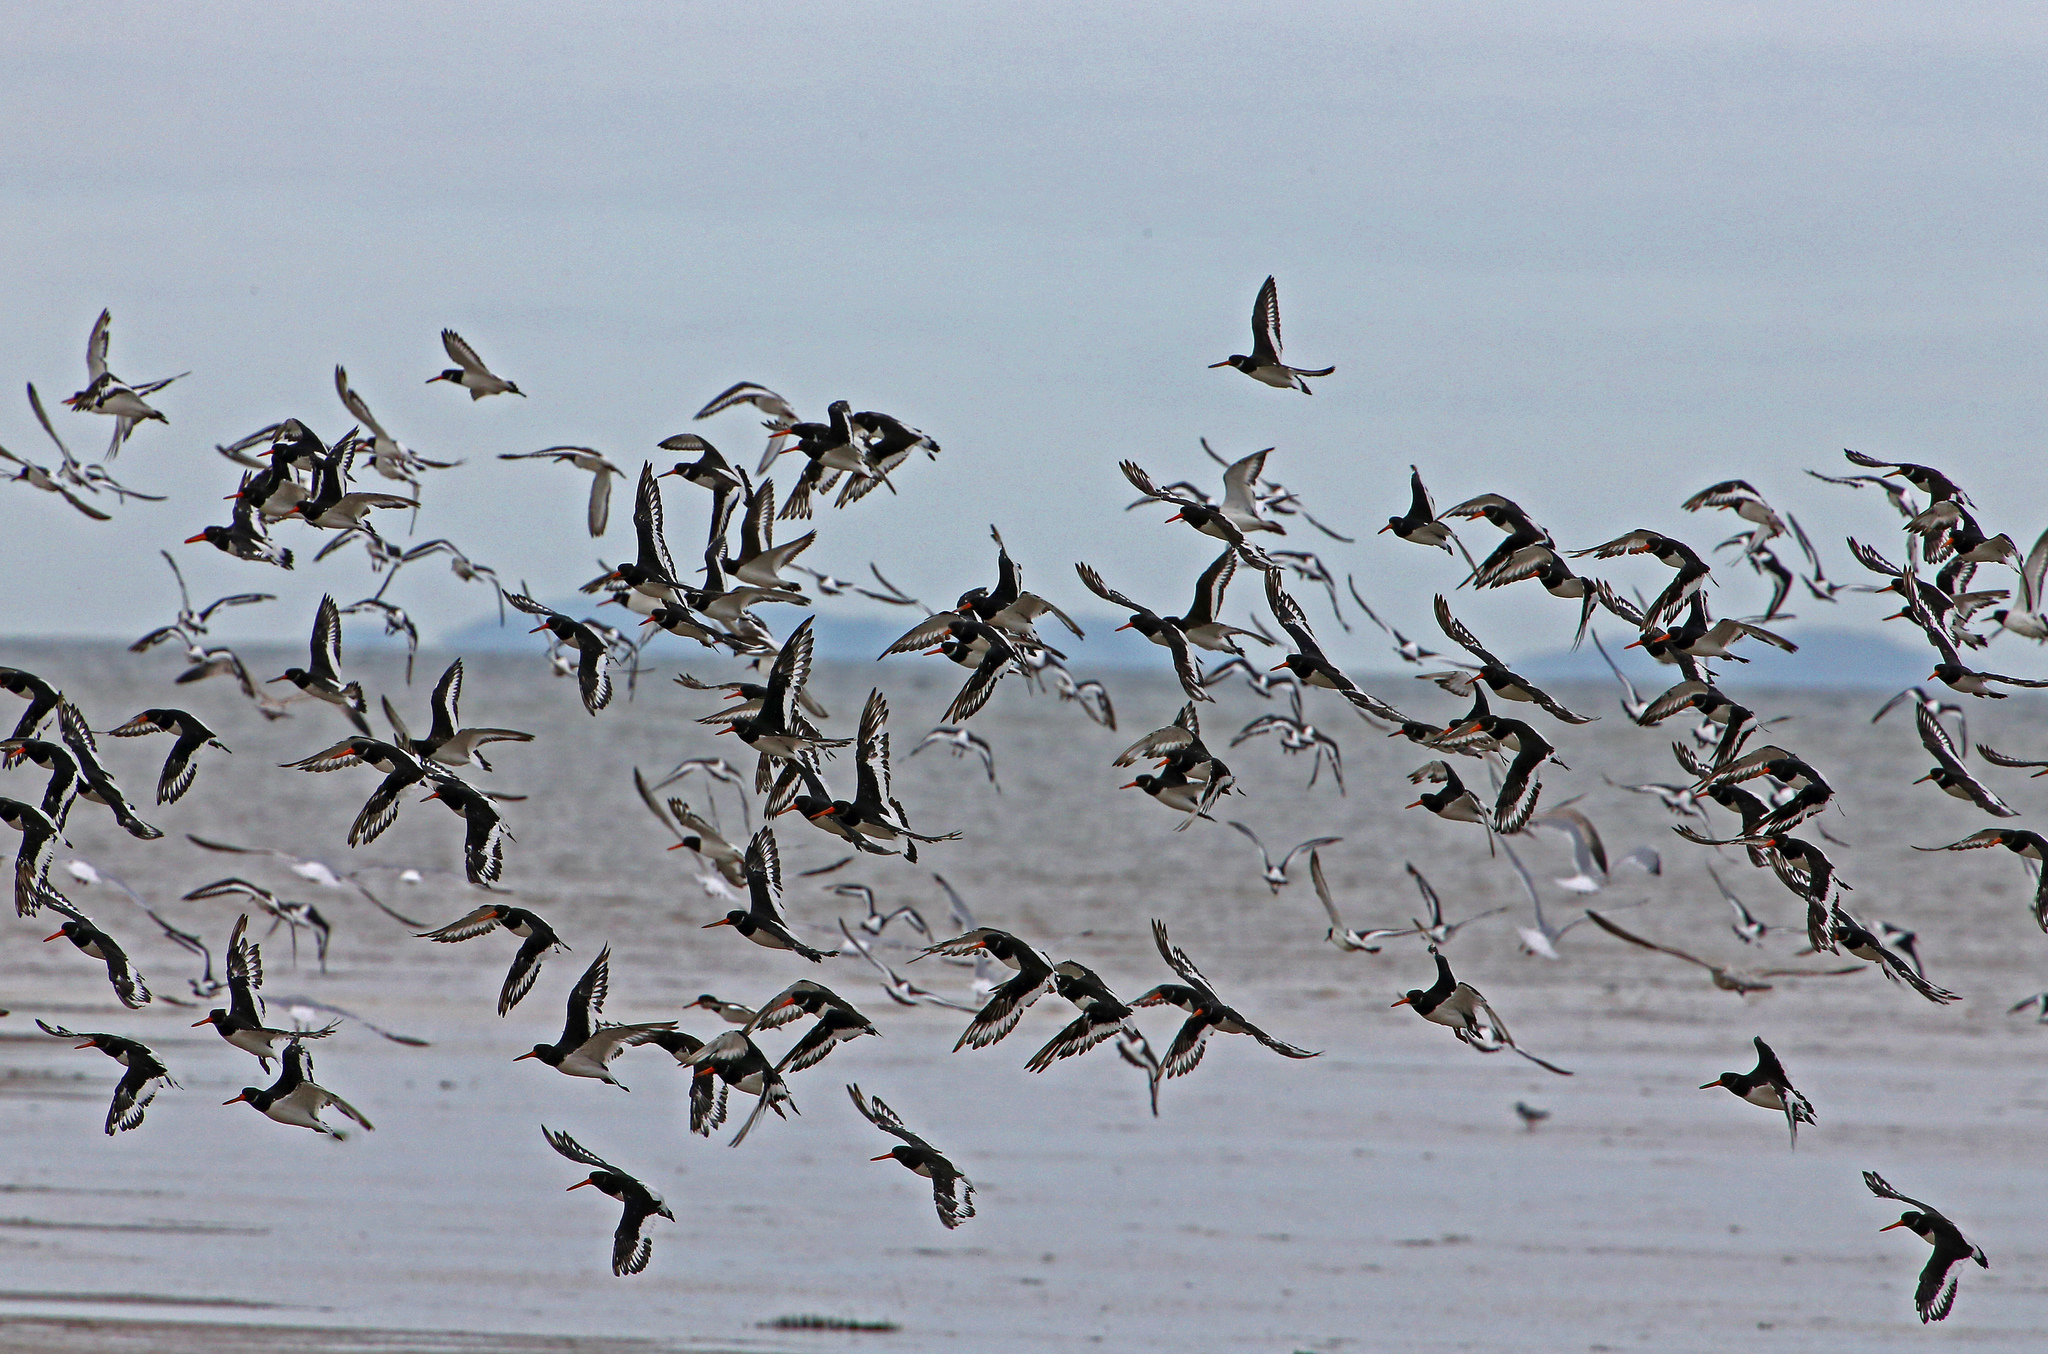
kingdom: Animalia
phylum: Chordata
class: Aves
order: Charadriiformes
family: Haematopodidae
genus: Haematopus
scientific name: Haematopus ostralegus
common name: Eurasian oystercatcher
